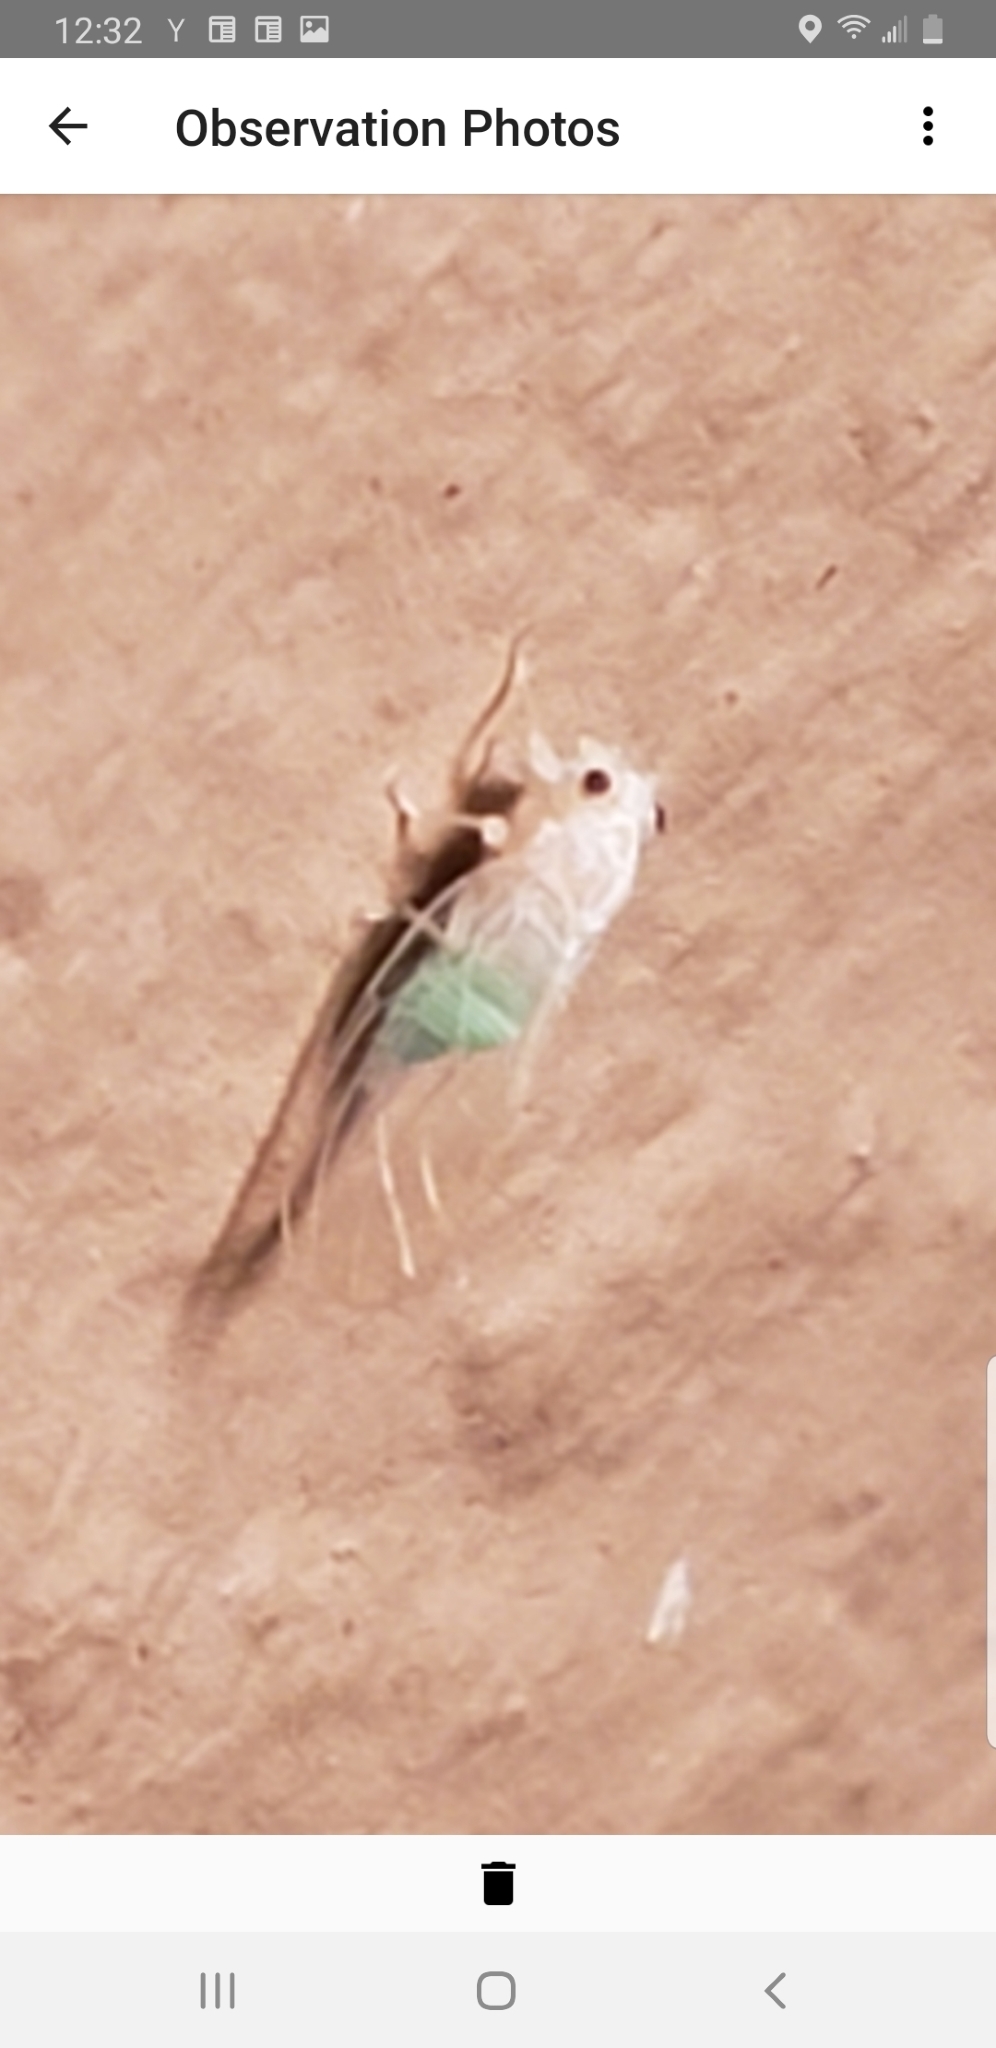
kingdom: Animalia
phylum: Arthropoda
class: Insecta
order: Hemiptera
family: Psyllidae
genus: Cacopsylla
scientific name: Cacopsylla annulata
